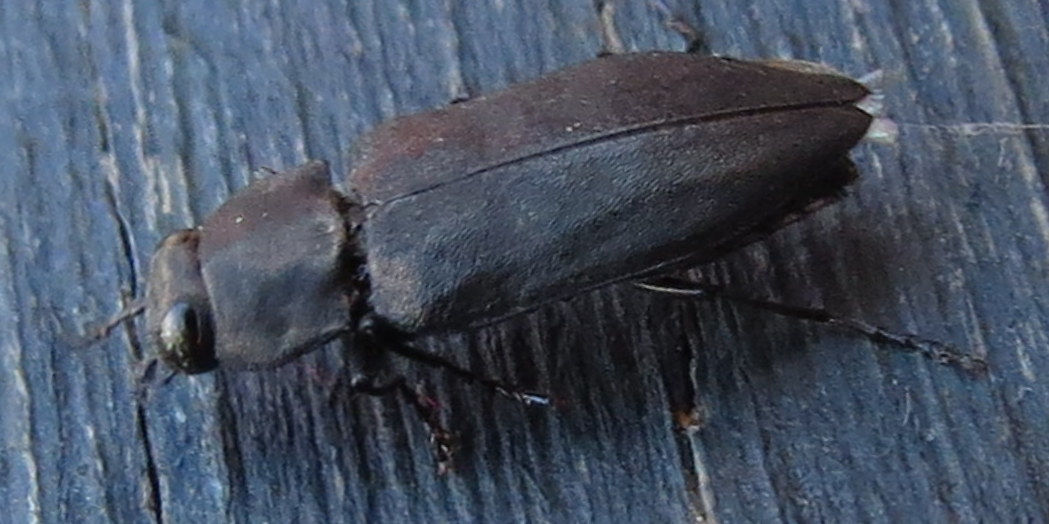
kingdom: Animalia
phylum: Arthropoda
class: Insecta
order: Coleoptera
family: Buprestidae
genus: Melanophila
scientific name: Melanophila acuminata
